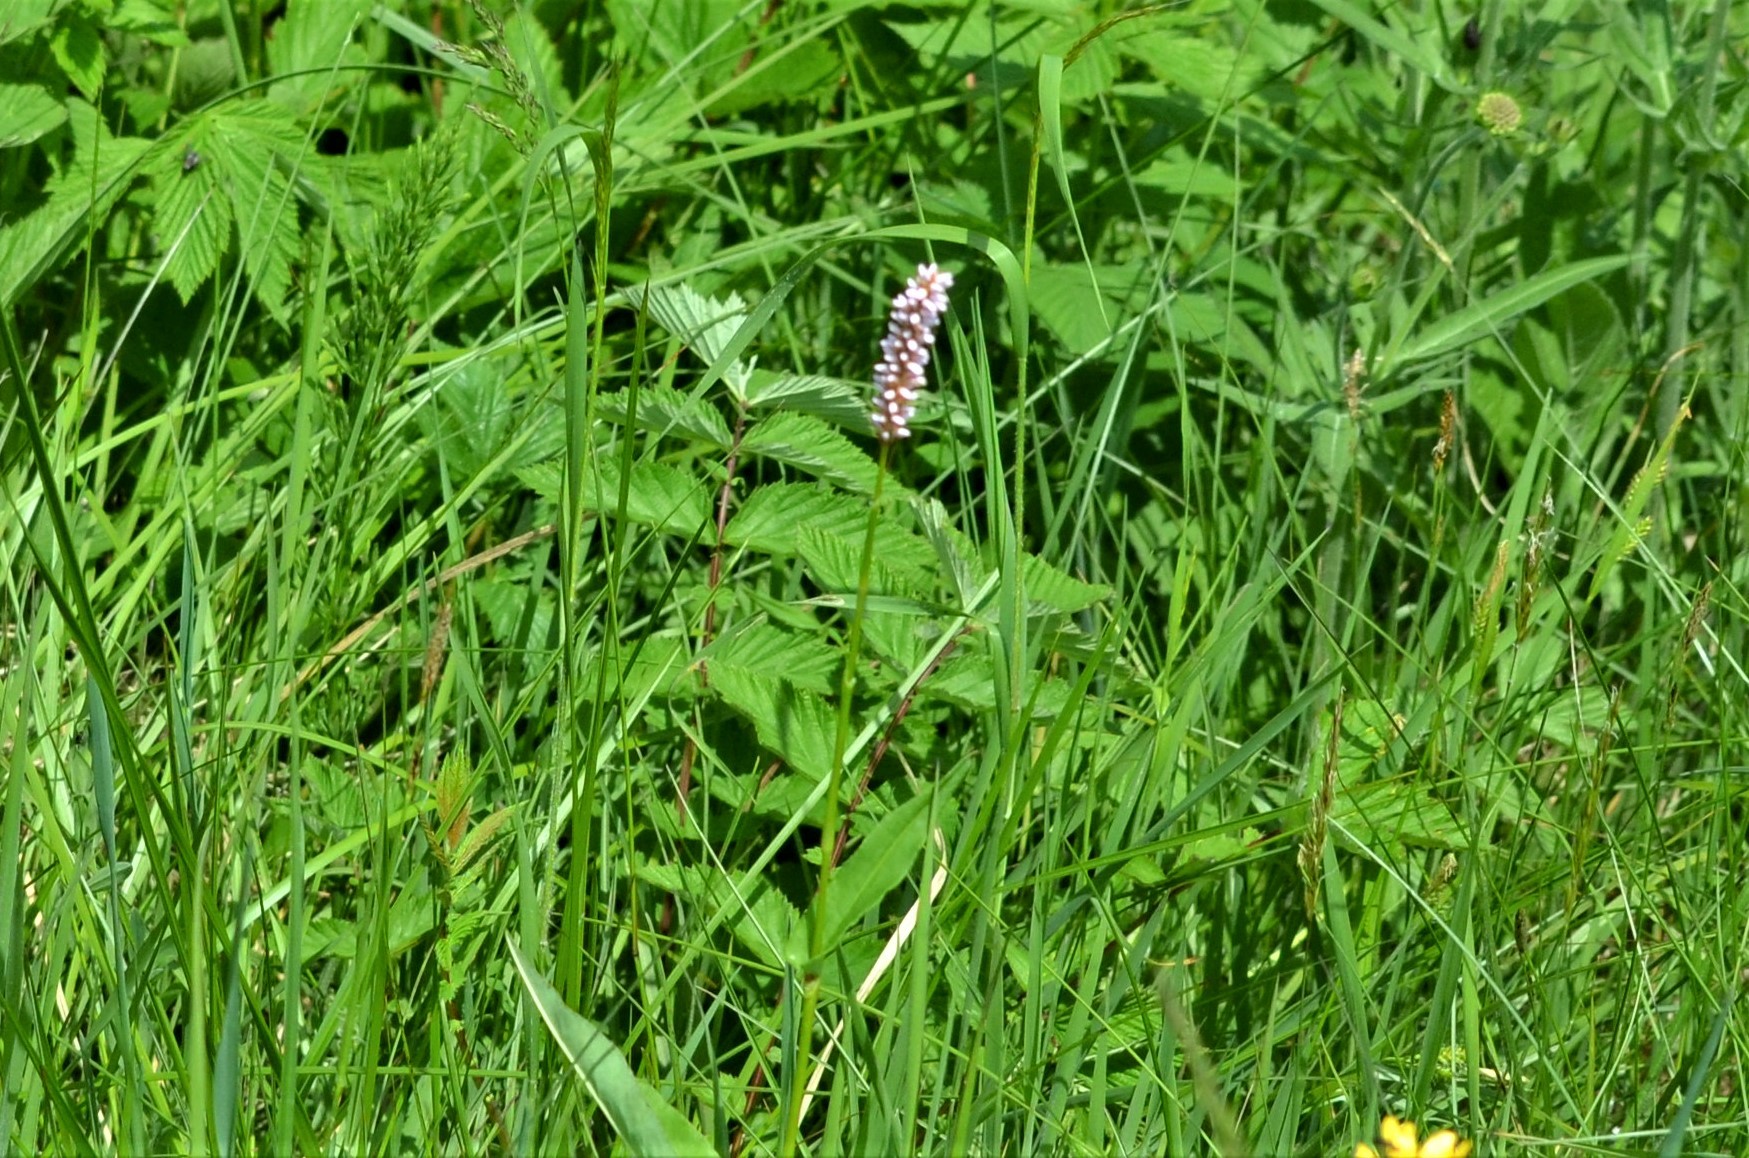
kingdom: Plantae
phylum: Tracheophyta
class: Magnoliopsida
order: Caryophyllales
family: Polygonaceae
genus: Bistorta
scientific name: Bistorta officinalis
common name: Common bistort
